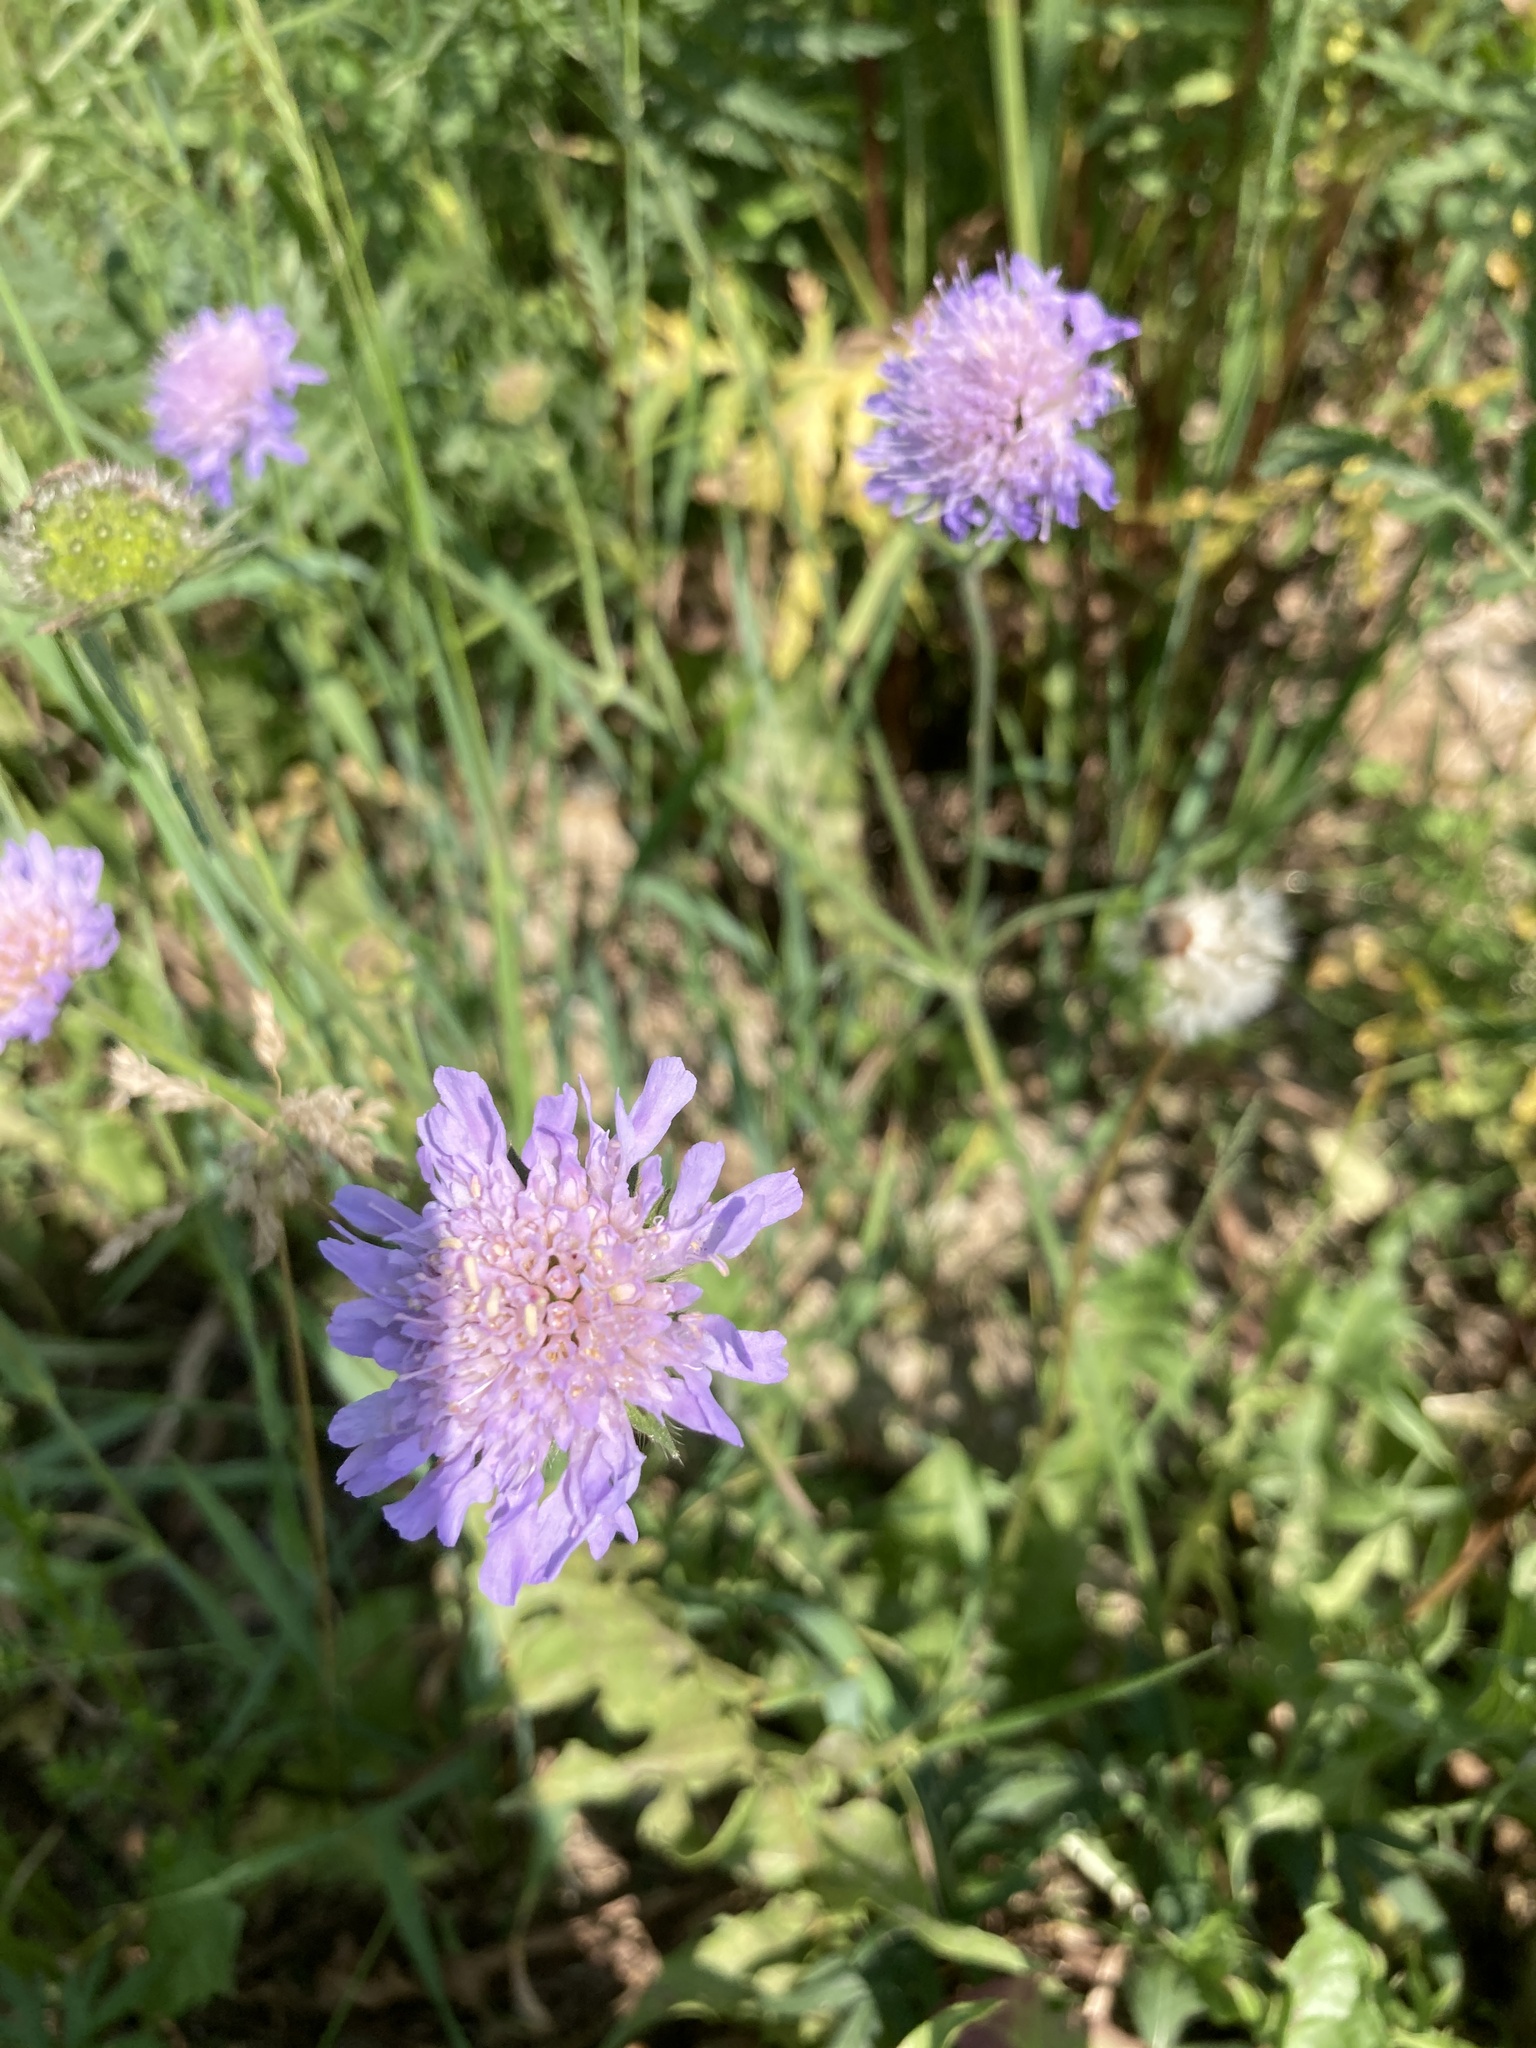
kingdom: Plantae
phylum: Tracheophyta
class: Magnoliopsida
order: Dipsacales
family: Caprifoliaceae
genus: Knautia
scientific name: Knautia arvensis
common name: Field scabiosa
